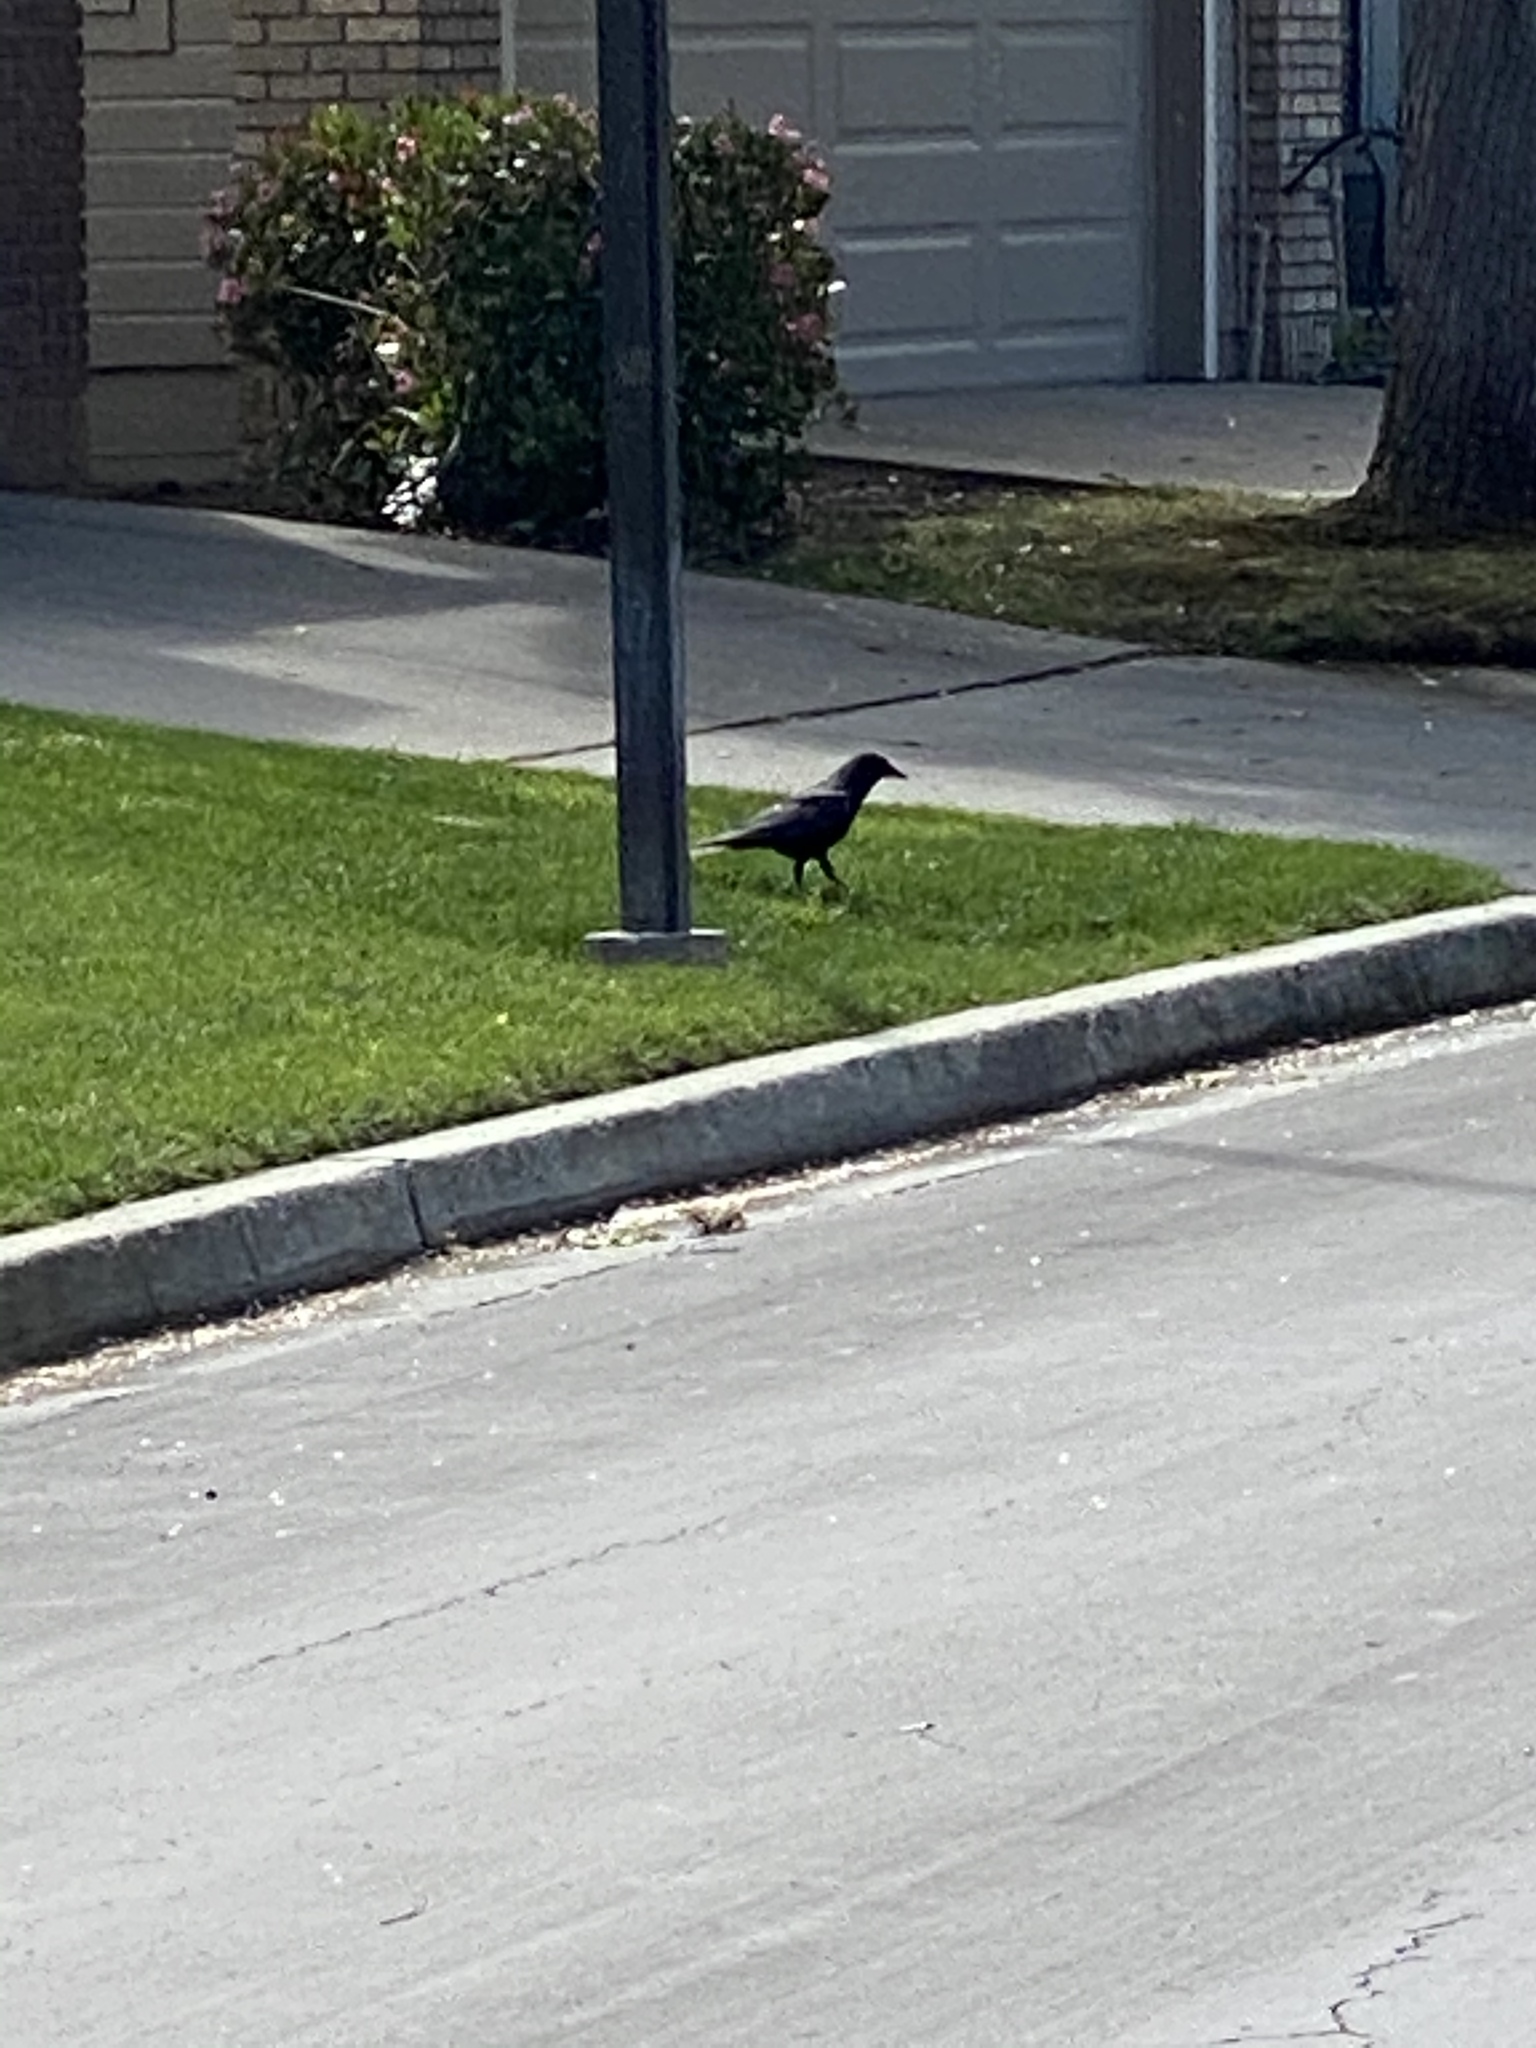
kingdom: Animalia
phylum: Chordata
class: Aves
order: Passeriformes
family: Corvidae
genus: Corvus
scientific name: Corvus brachyrhynchos
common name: American crow
